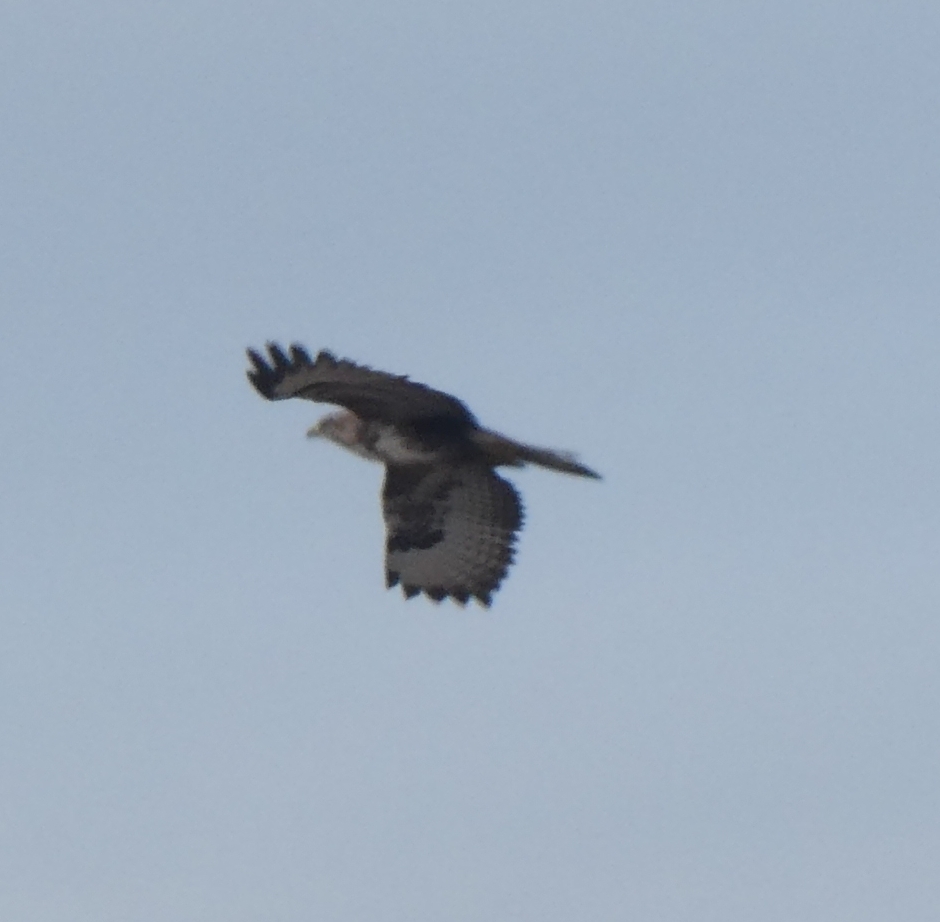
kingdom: Animalia
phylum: Chordata
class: Aves
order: Accipitriformes
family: Accipitridae
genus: Buteo
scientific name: Buteo buteo
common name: Common buzzard
